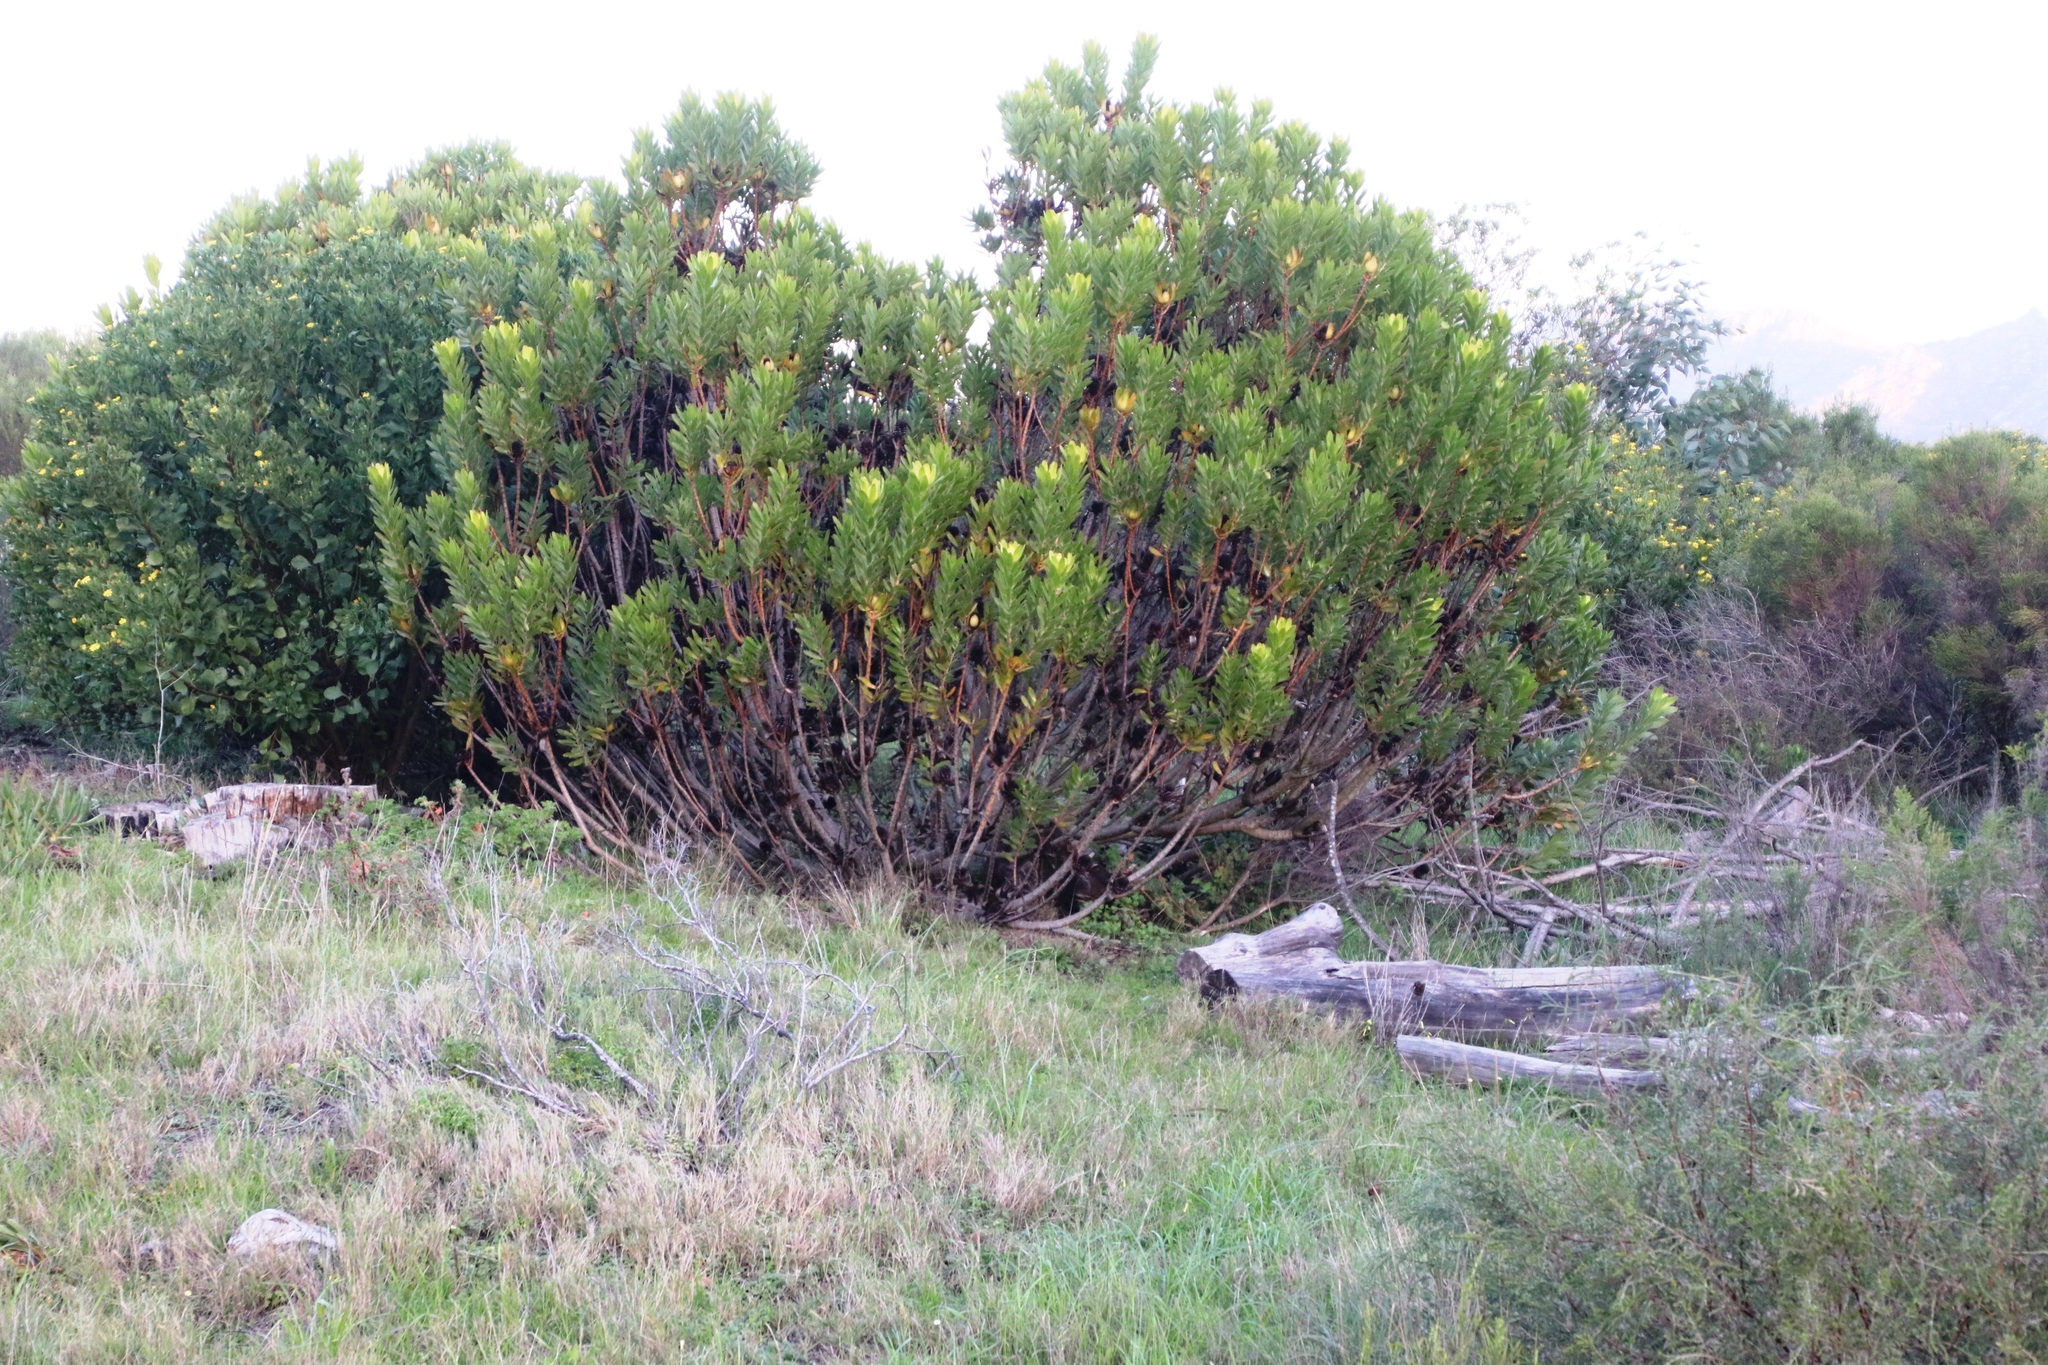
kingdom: Plantae
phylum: Tracheophyta
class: Magnoliopsida
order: Proteales
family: Proteaceae
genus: Leucadendron
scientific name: Leucadendron laureolum
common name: Golden sunshinebush
